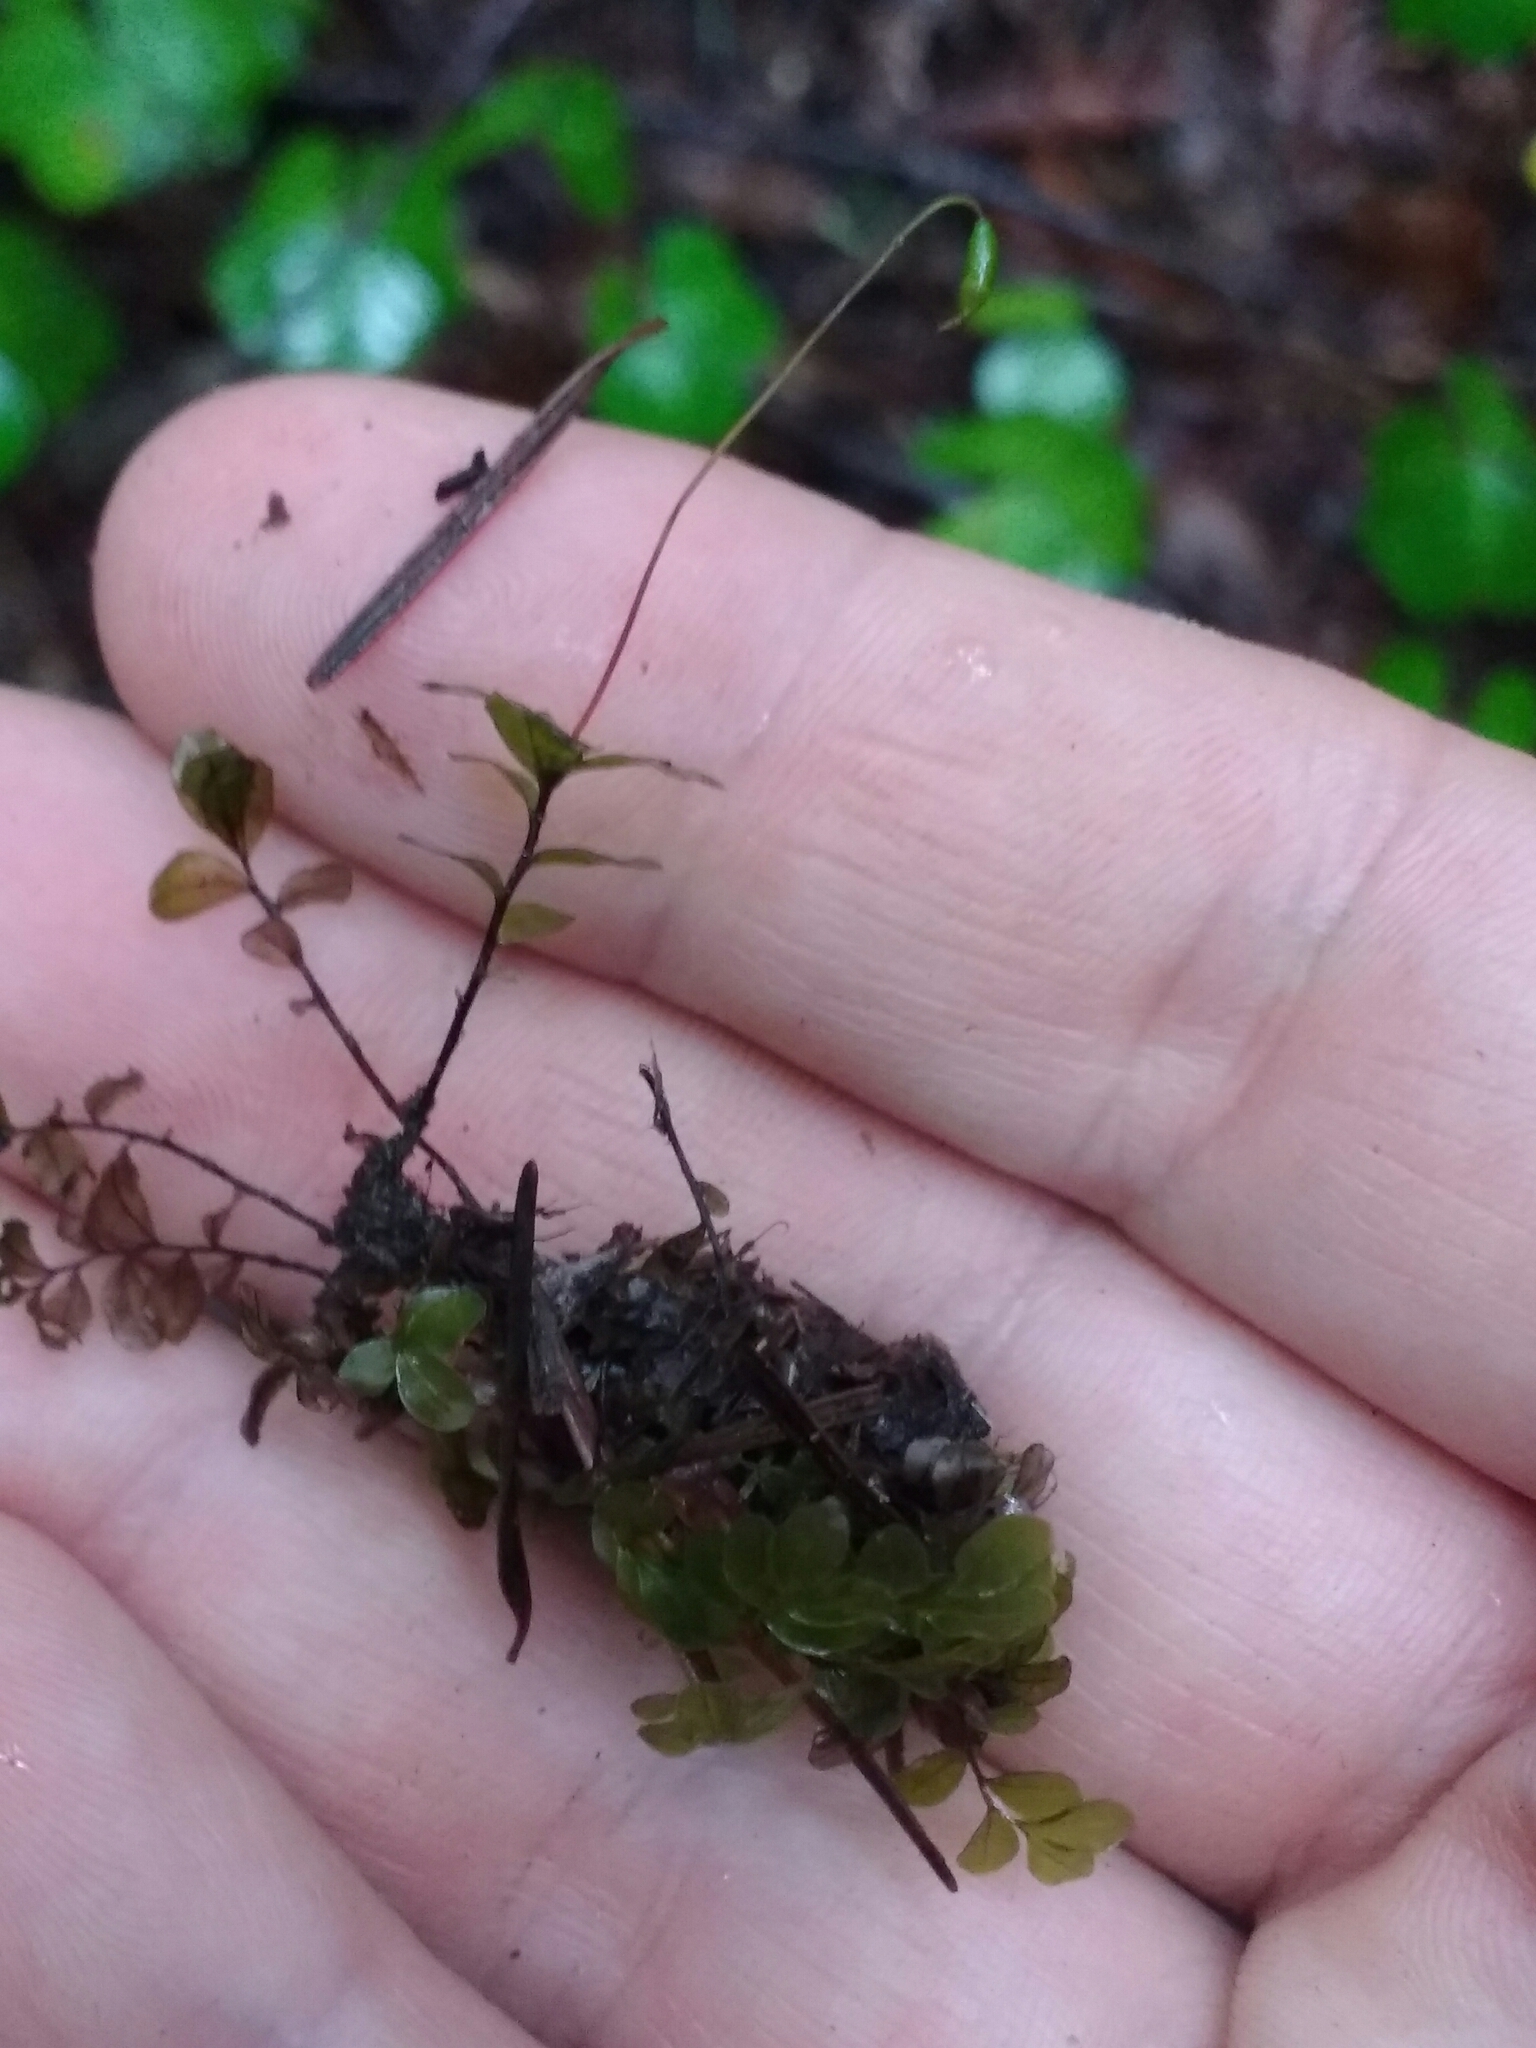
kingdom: Plantae
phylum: Bryophyta
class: Bryopsida
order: Bryales
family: Mniaceae
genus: Rhizomnium
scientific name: Rhizomnium glabrescens
